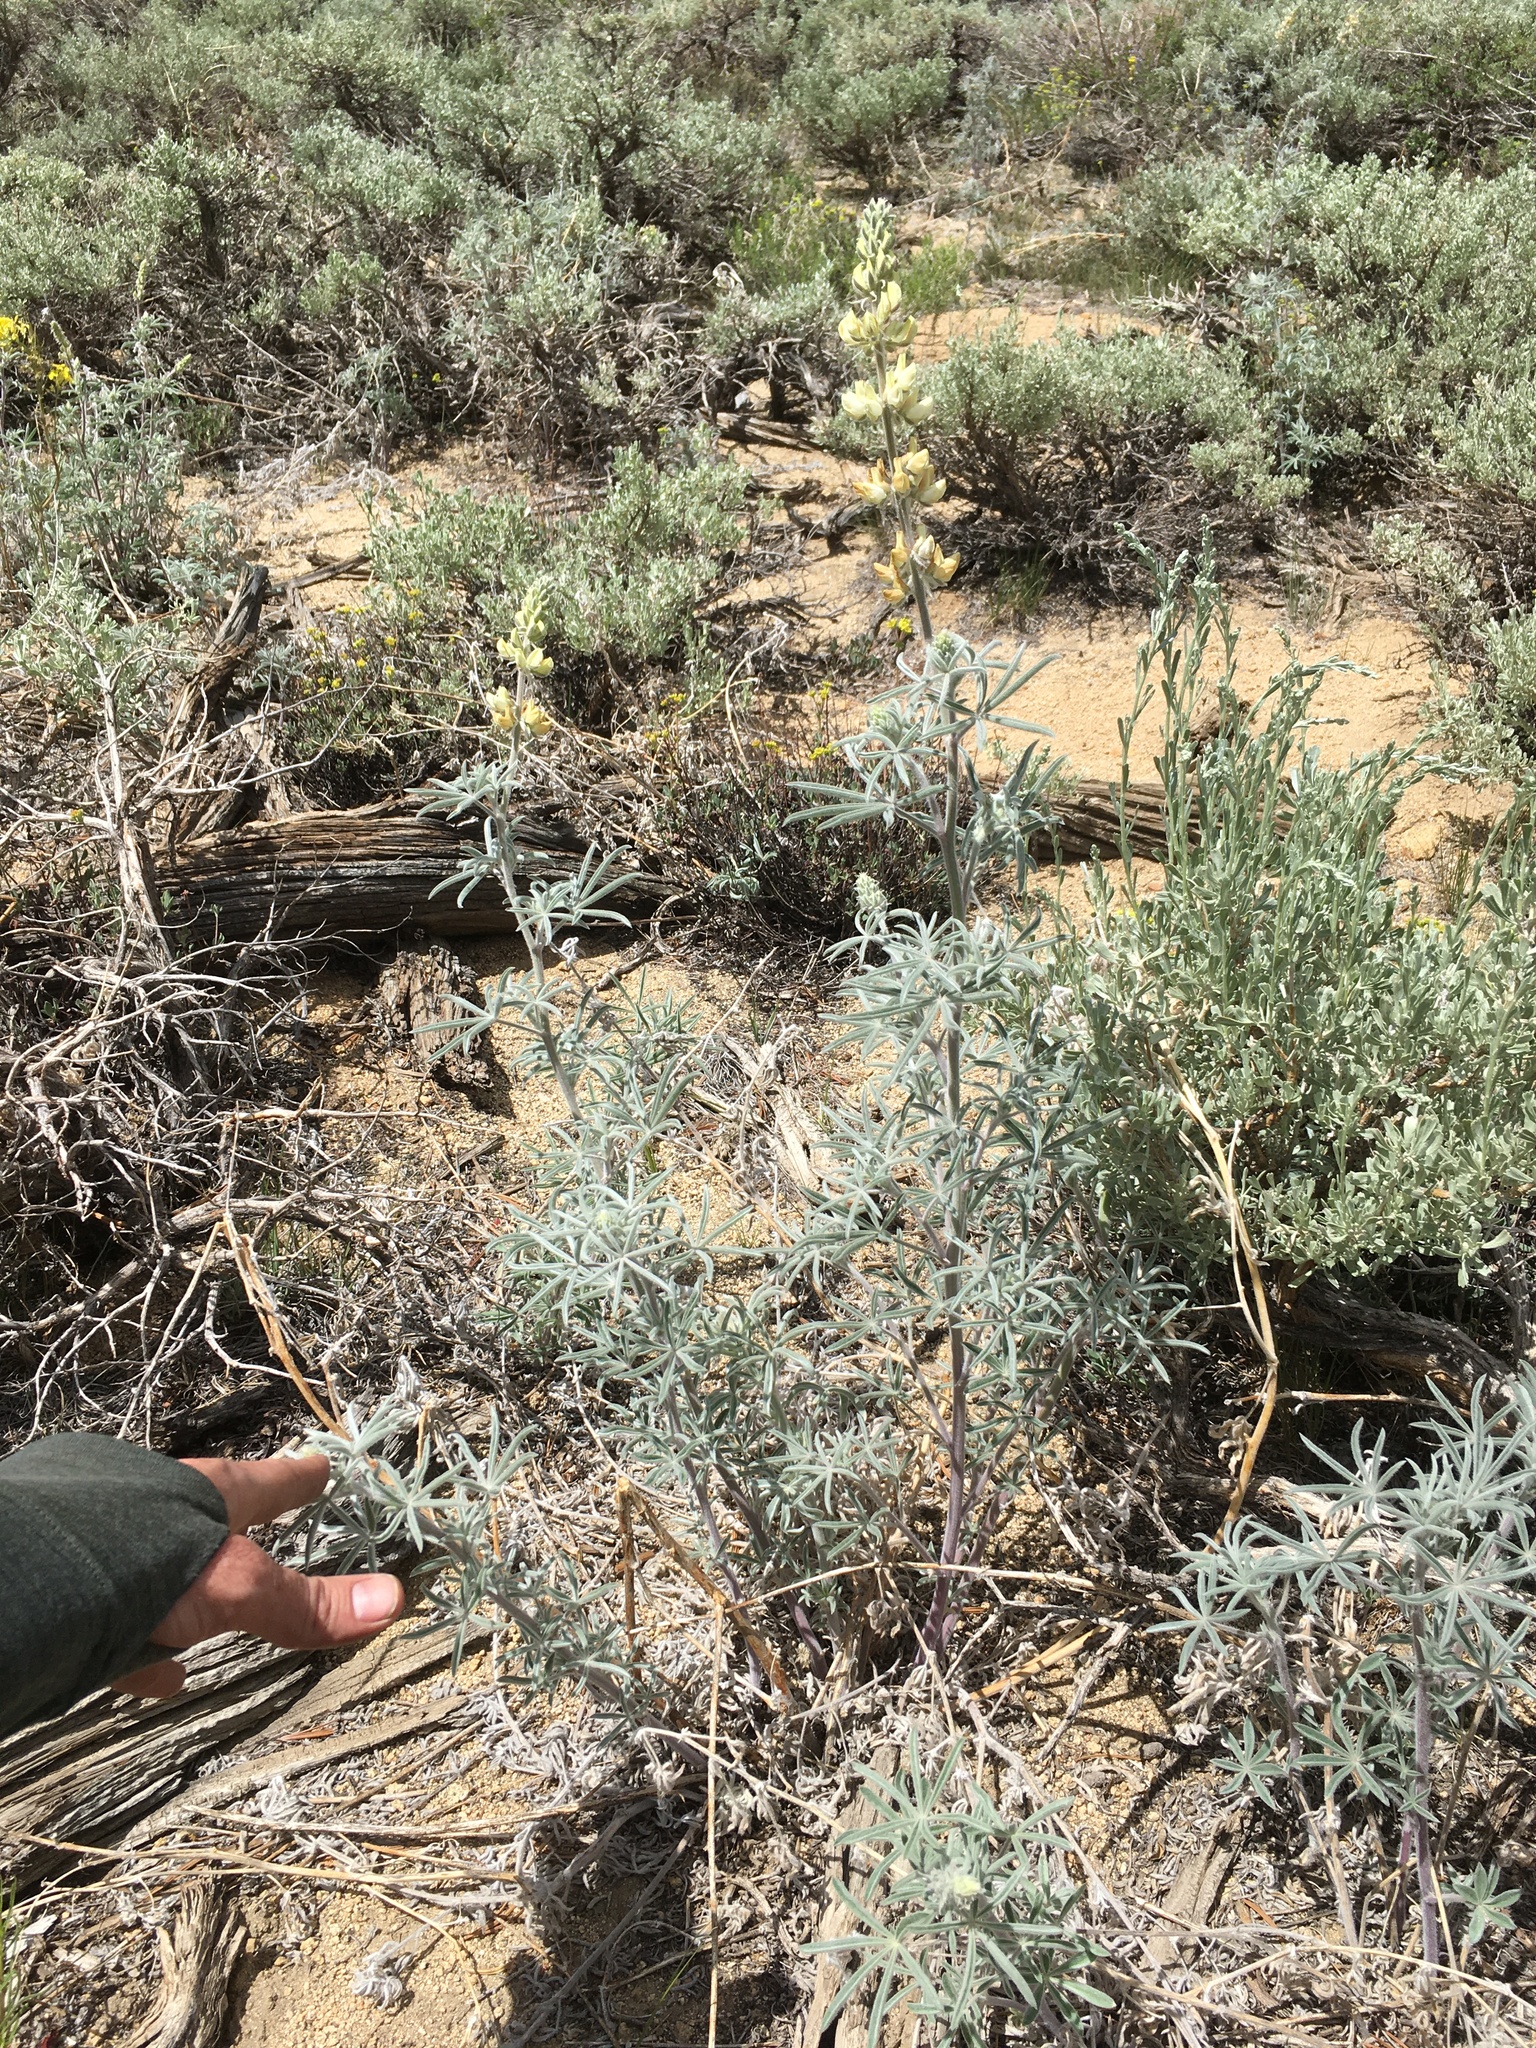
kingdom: Plantae
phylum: Tracheophyta
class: Magnoliopsida
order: Fabales
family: Fabaceae
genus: Lupinus
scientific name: Lupinus padre-crowleyi
